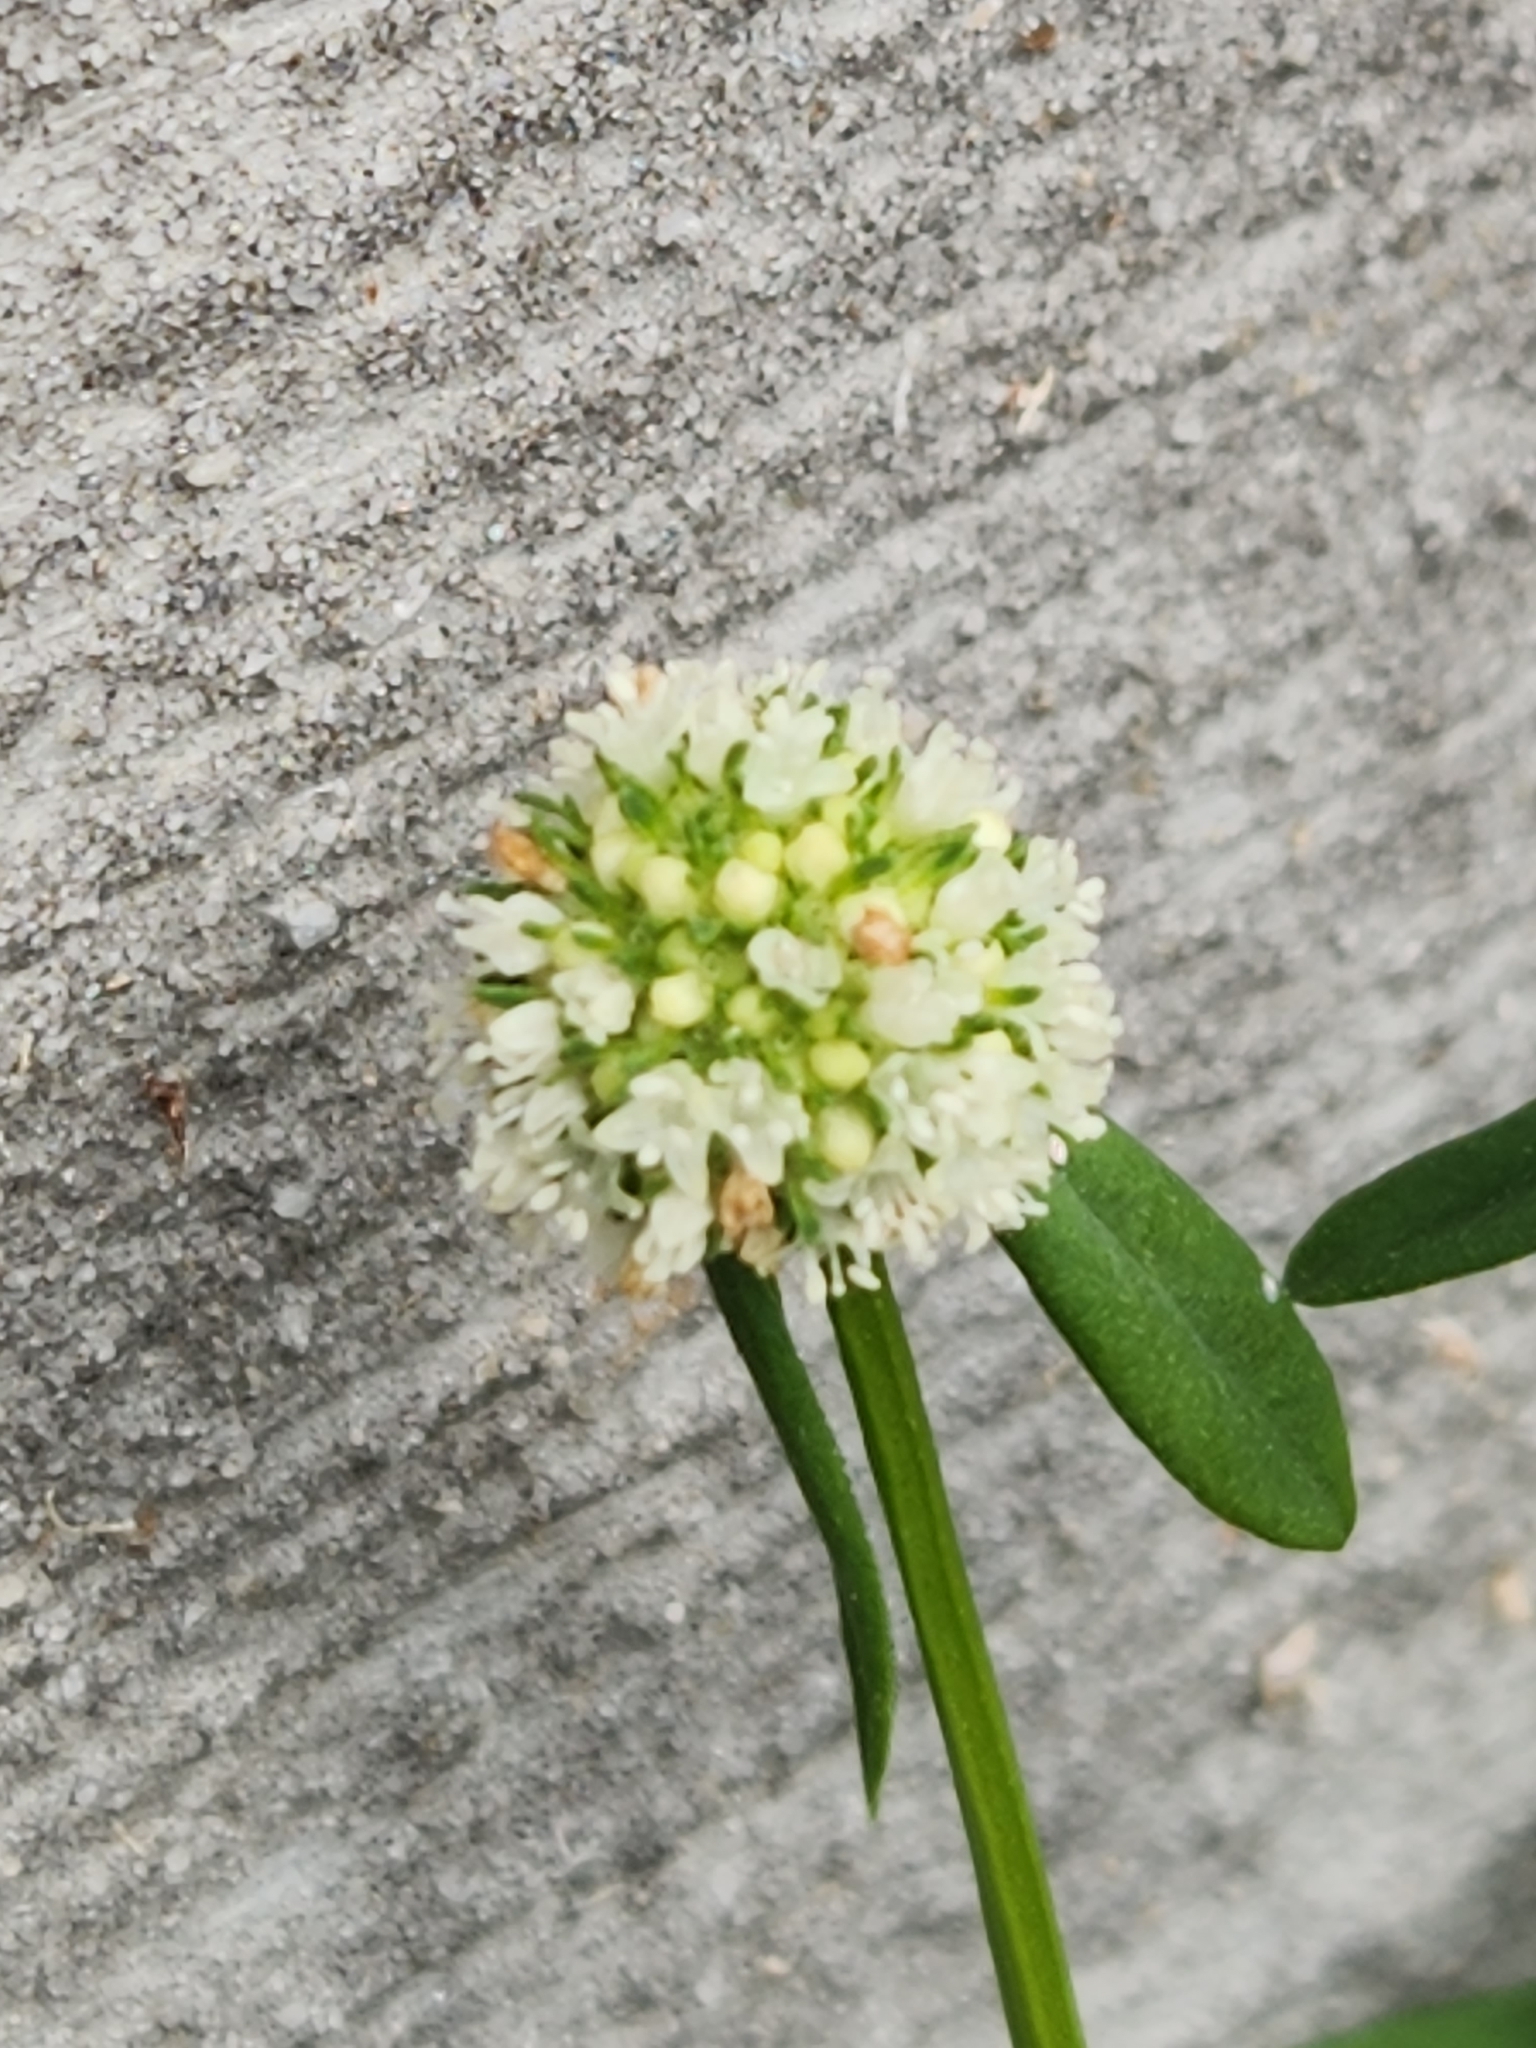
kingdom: Plantae
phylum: Tracheophyta
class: Magnoliopsida
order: Gentianales
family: Rubiaceae
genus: Spermacoce
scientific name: Spermacoce verticillata
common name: Shrubby false buttonweed
